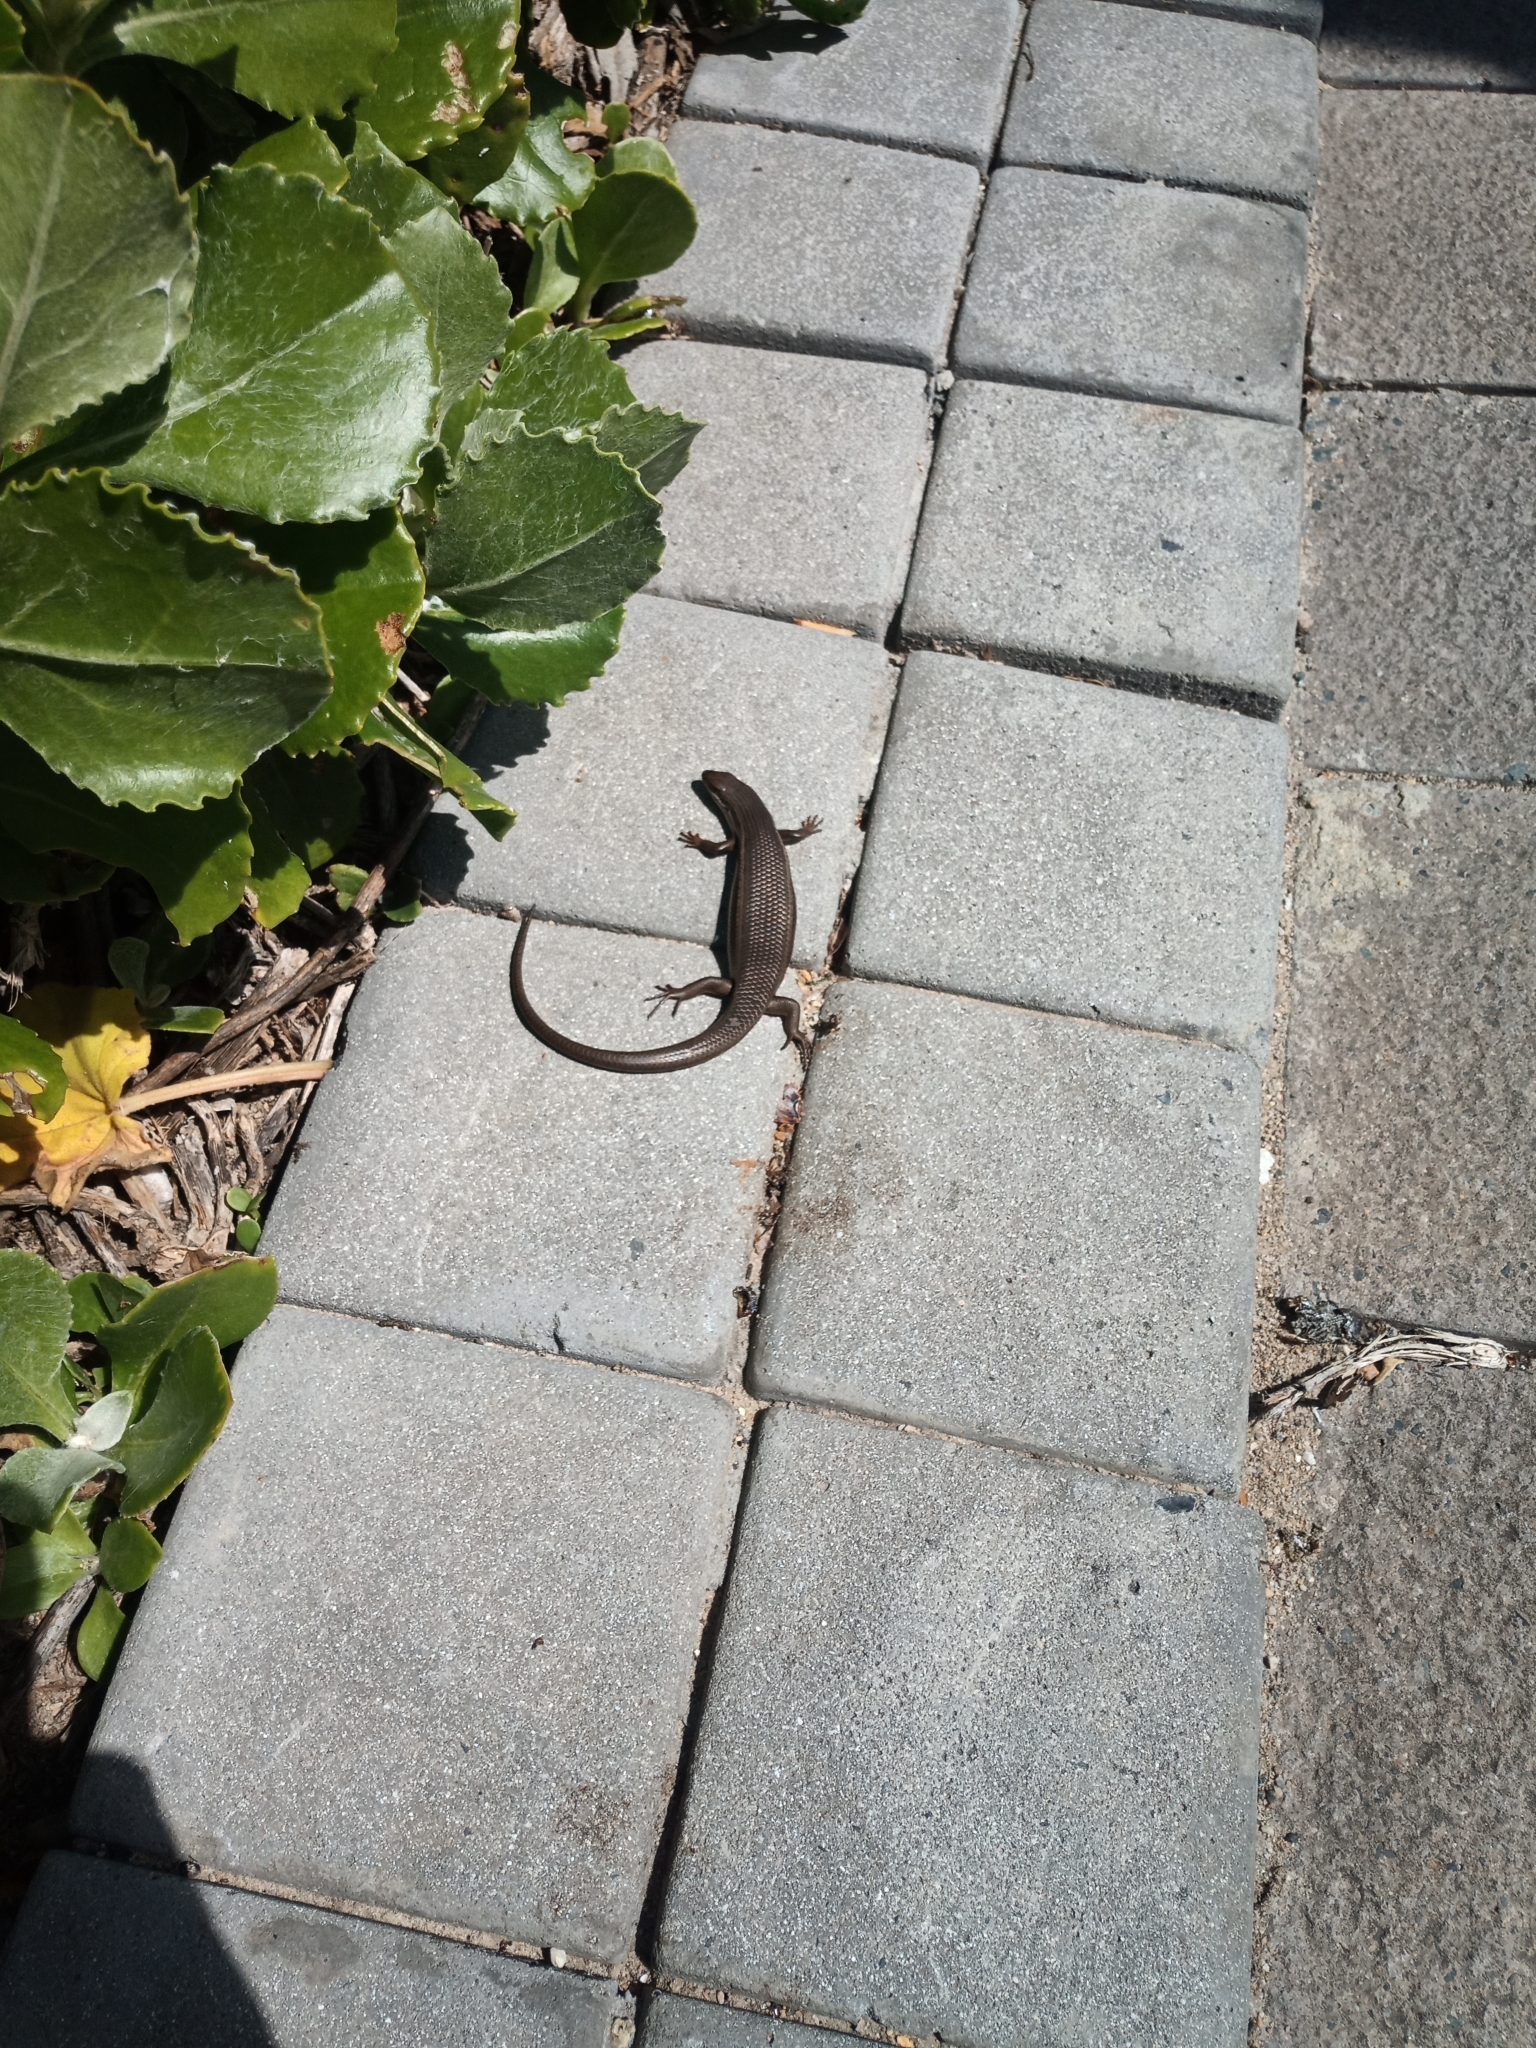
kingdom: Animalia
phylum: Chordata
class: Squamata
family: Scincidae
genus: Trachylepis
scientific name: Trachylepis homalocephala
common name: Red-sided skink
